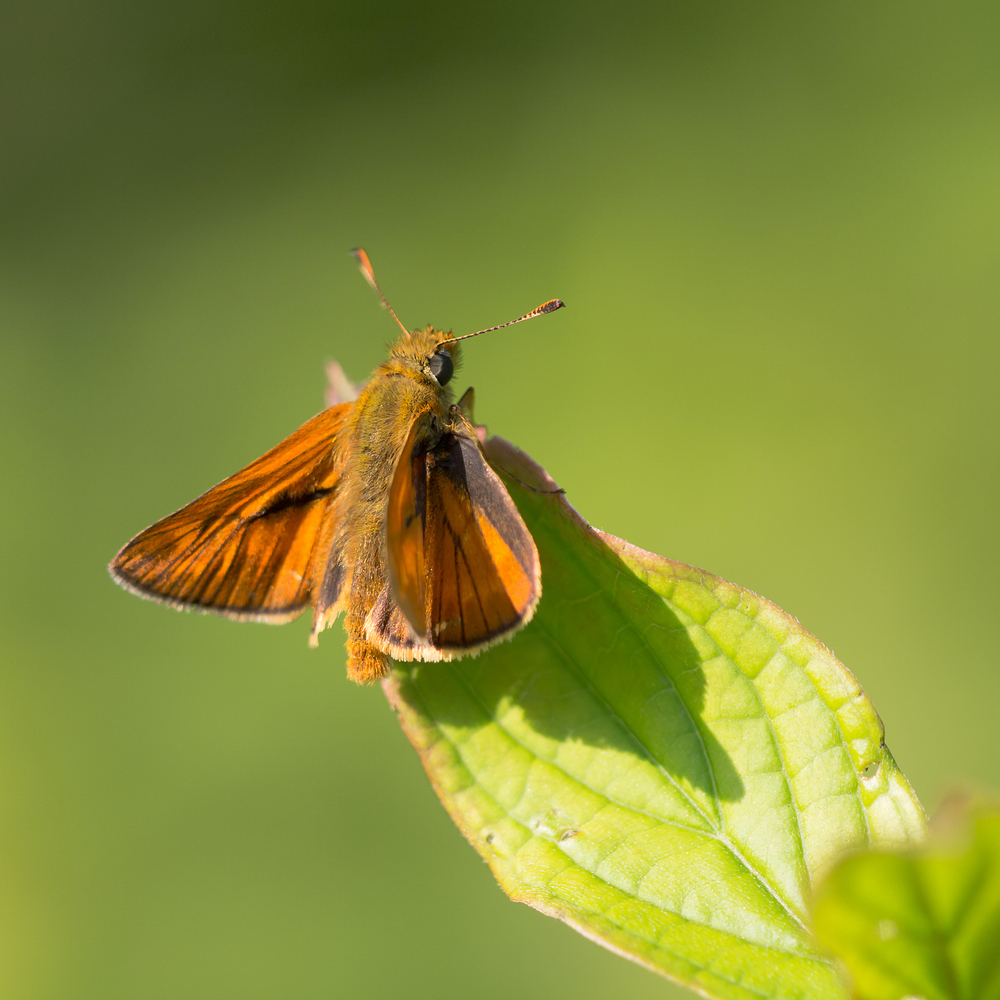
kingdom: Animalia
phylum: Arthropoda
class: Insecta
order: Lepidoptera
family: Hesperiidae
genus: Ochlodes
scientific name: Ochlodes venata
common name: Large skipper
